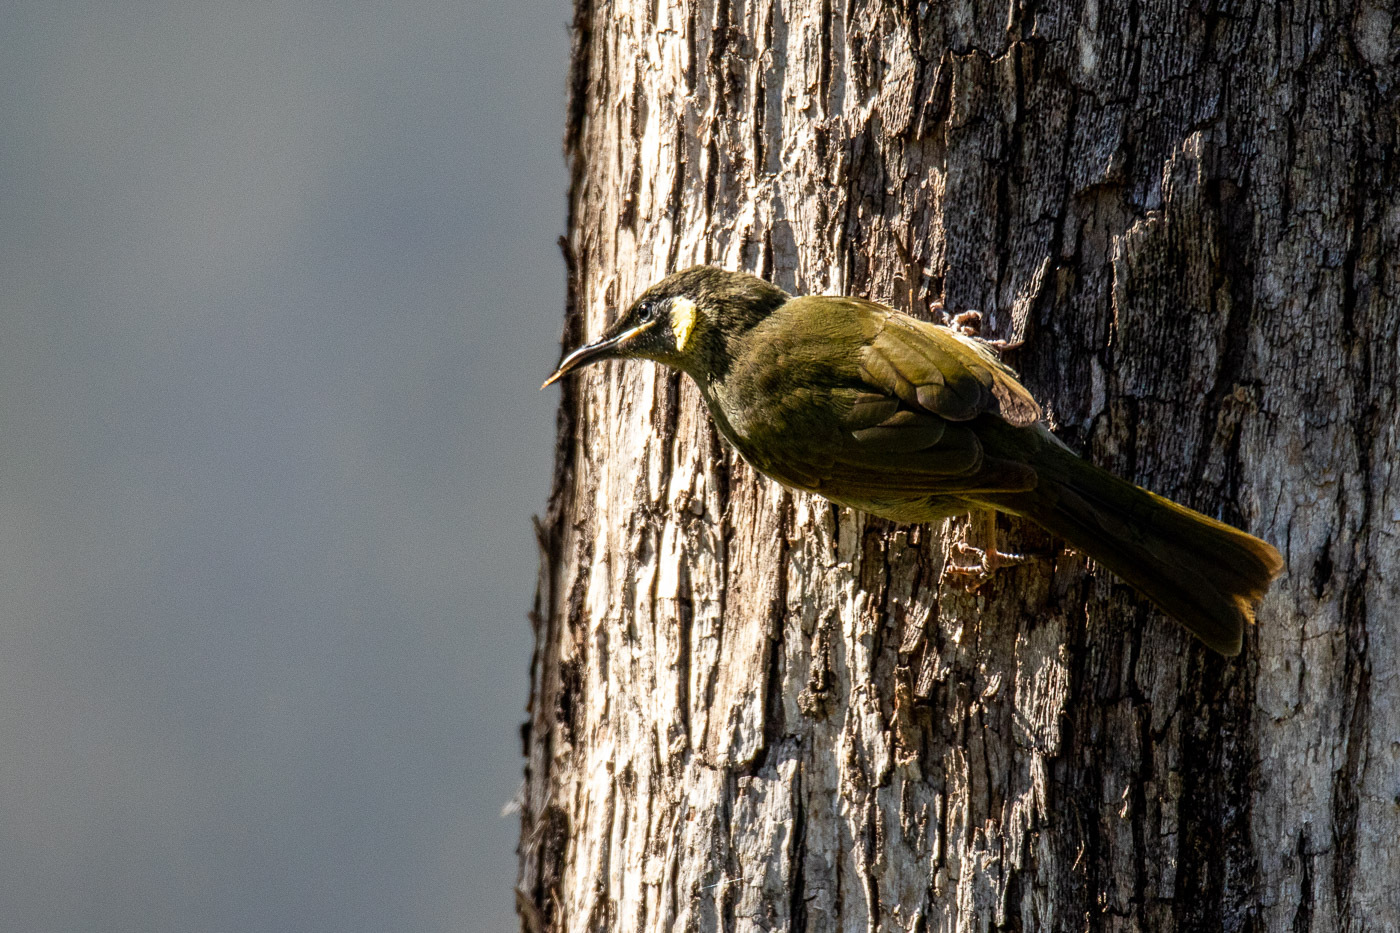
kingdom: Animalia
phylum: Chordata
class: Aves
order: Passeriformes
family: Meliphagidae
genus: Meliphaga
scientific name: Meliphaga lewinii
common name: Lewin's honeyeater
